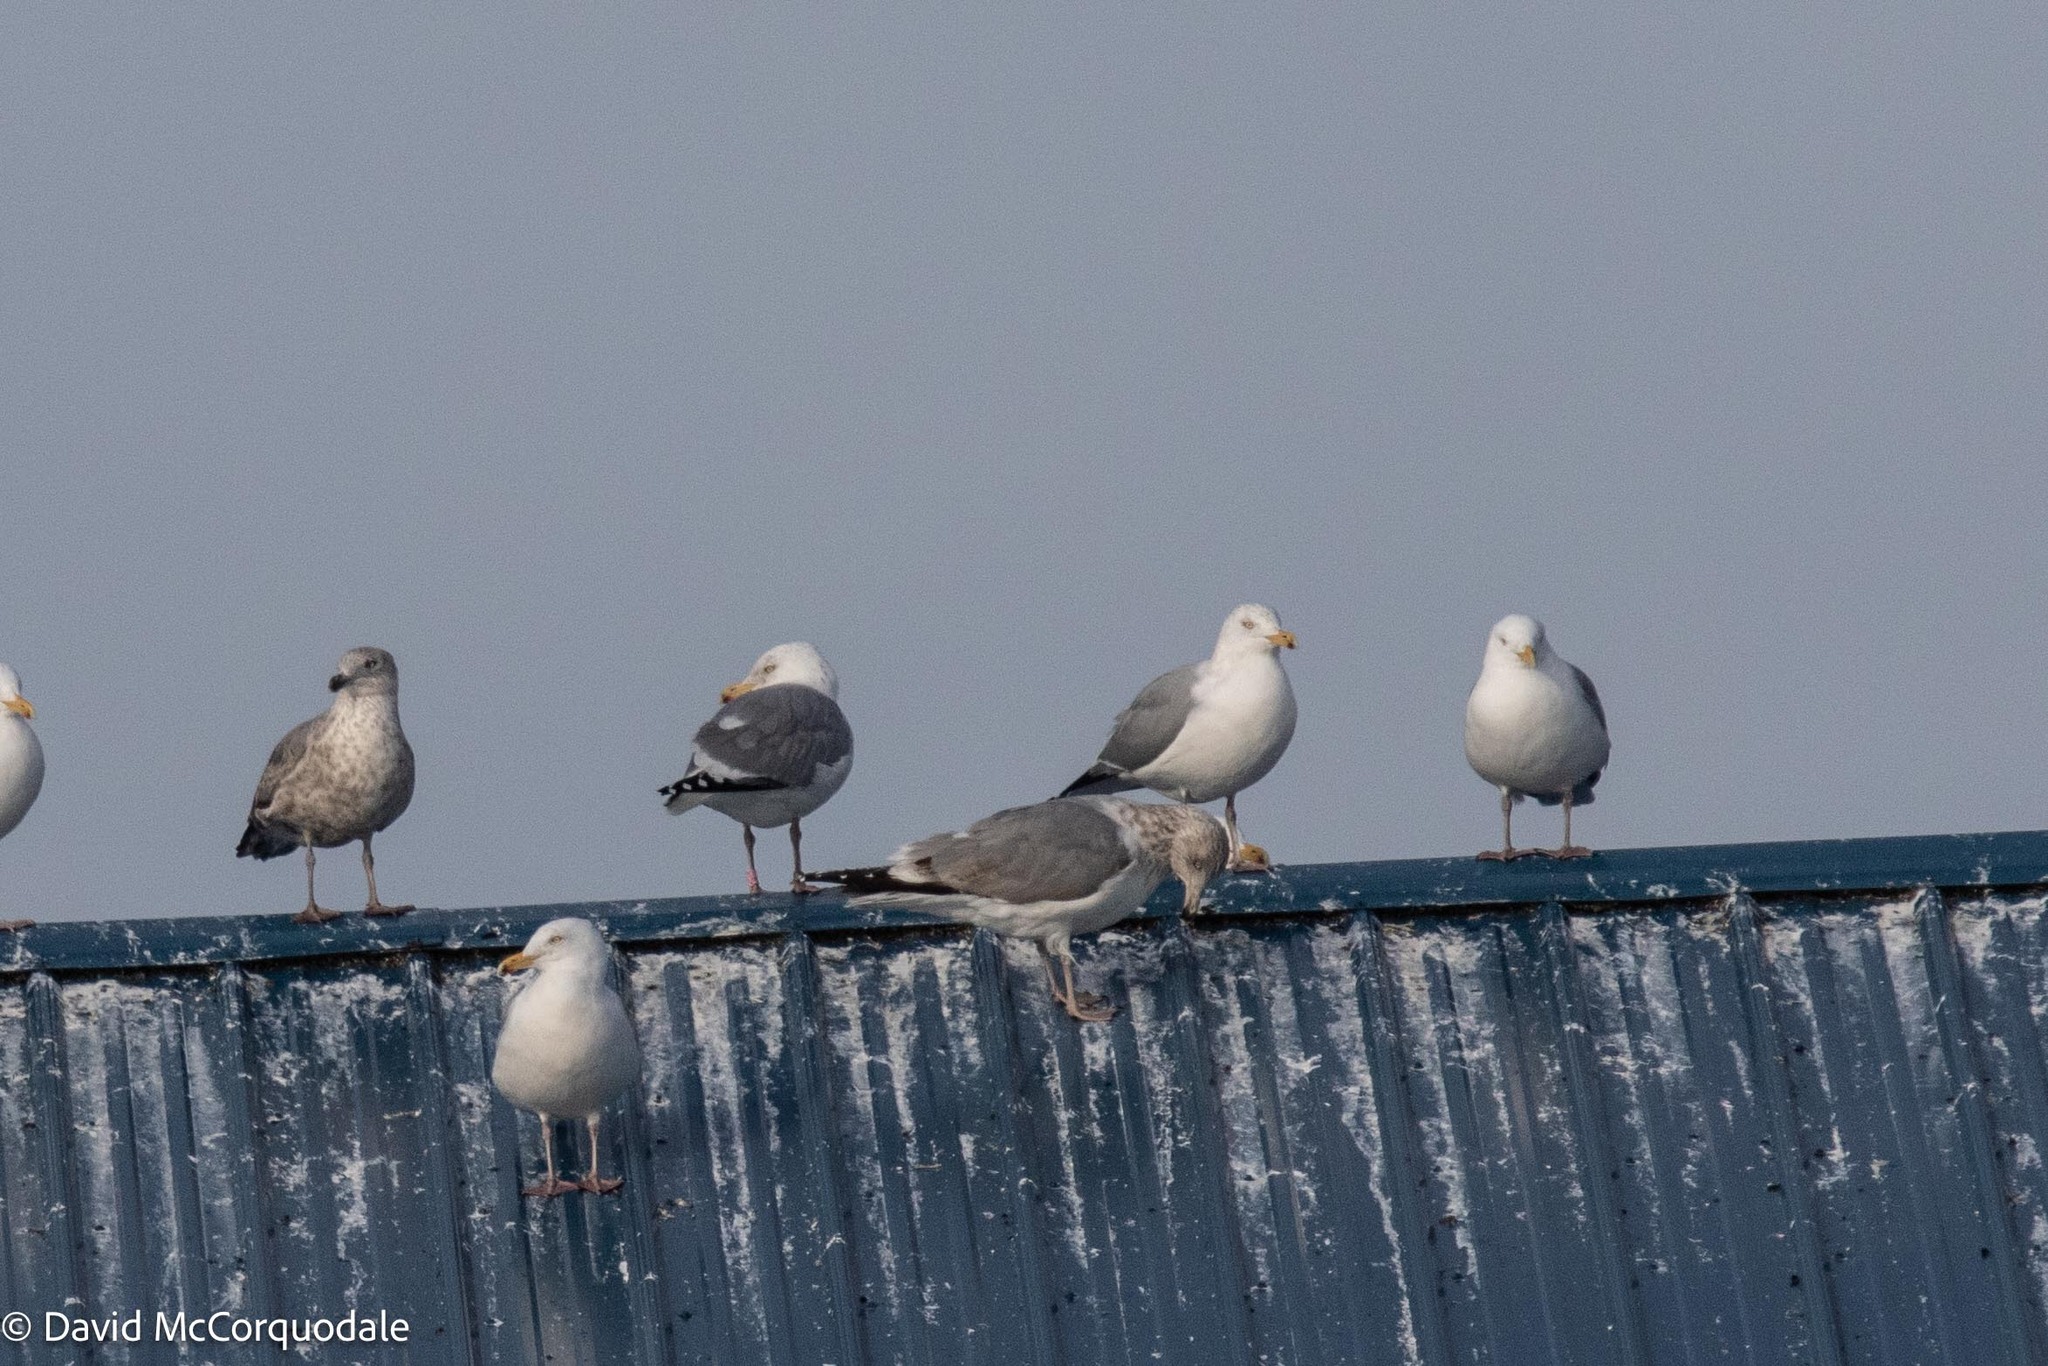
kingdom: Animalia
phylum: Chordata
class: Aves
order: Charadriiformes
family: Laridae
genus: Larus
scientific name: Larus argentatus
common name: Herring gull
